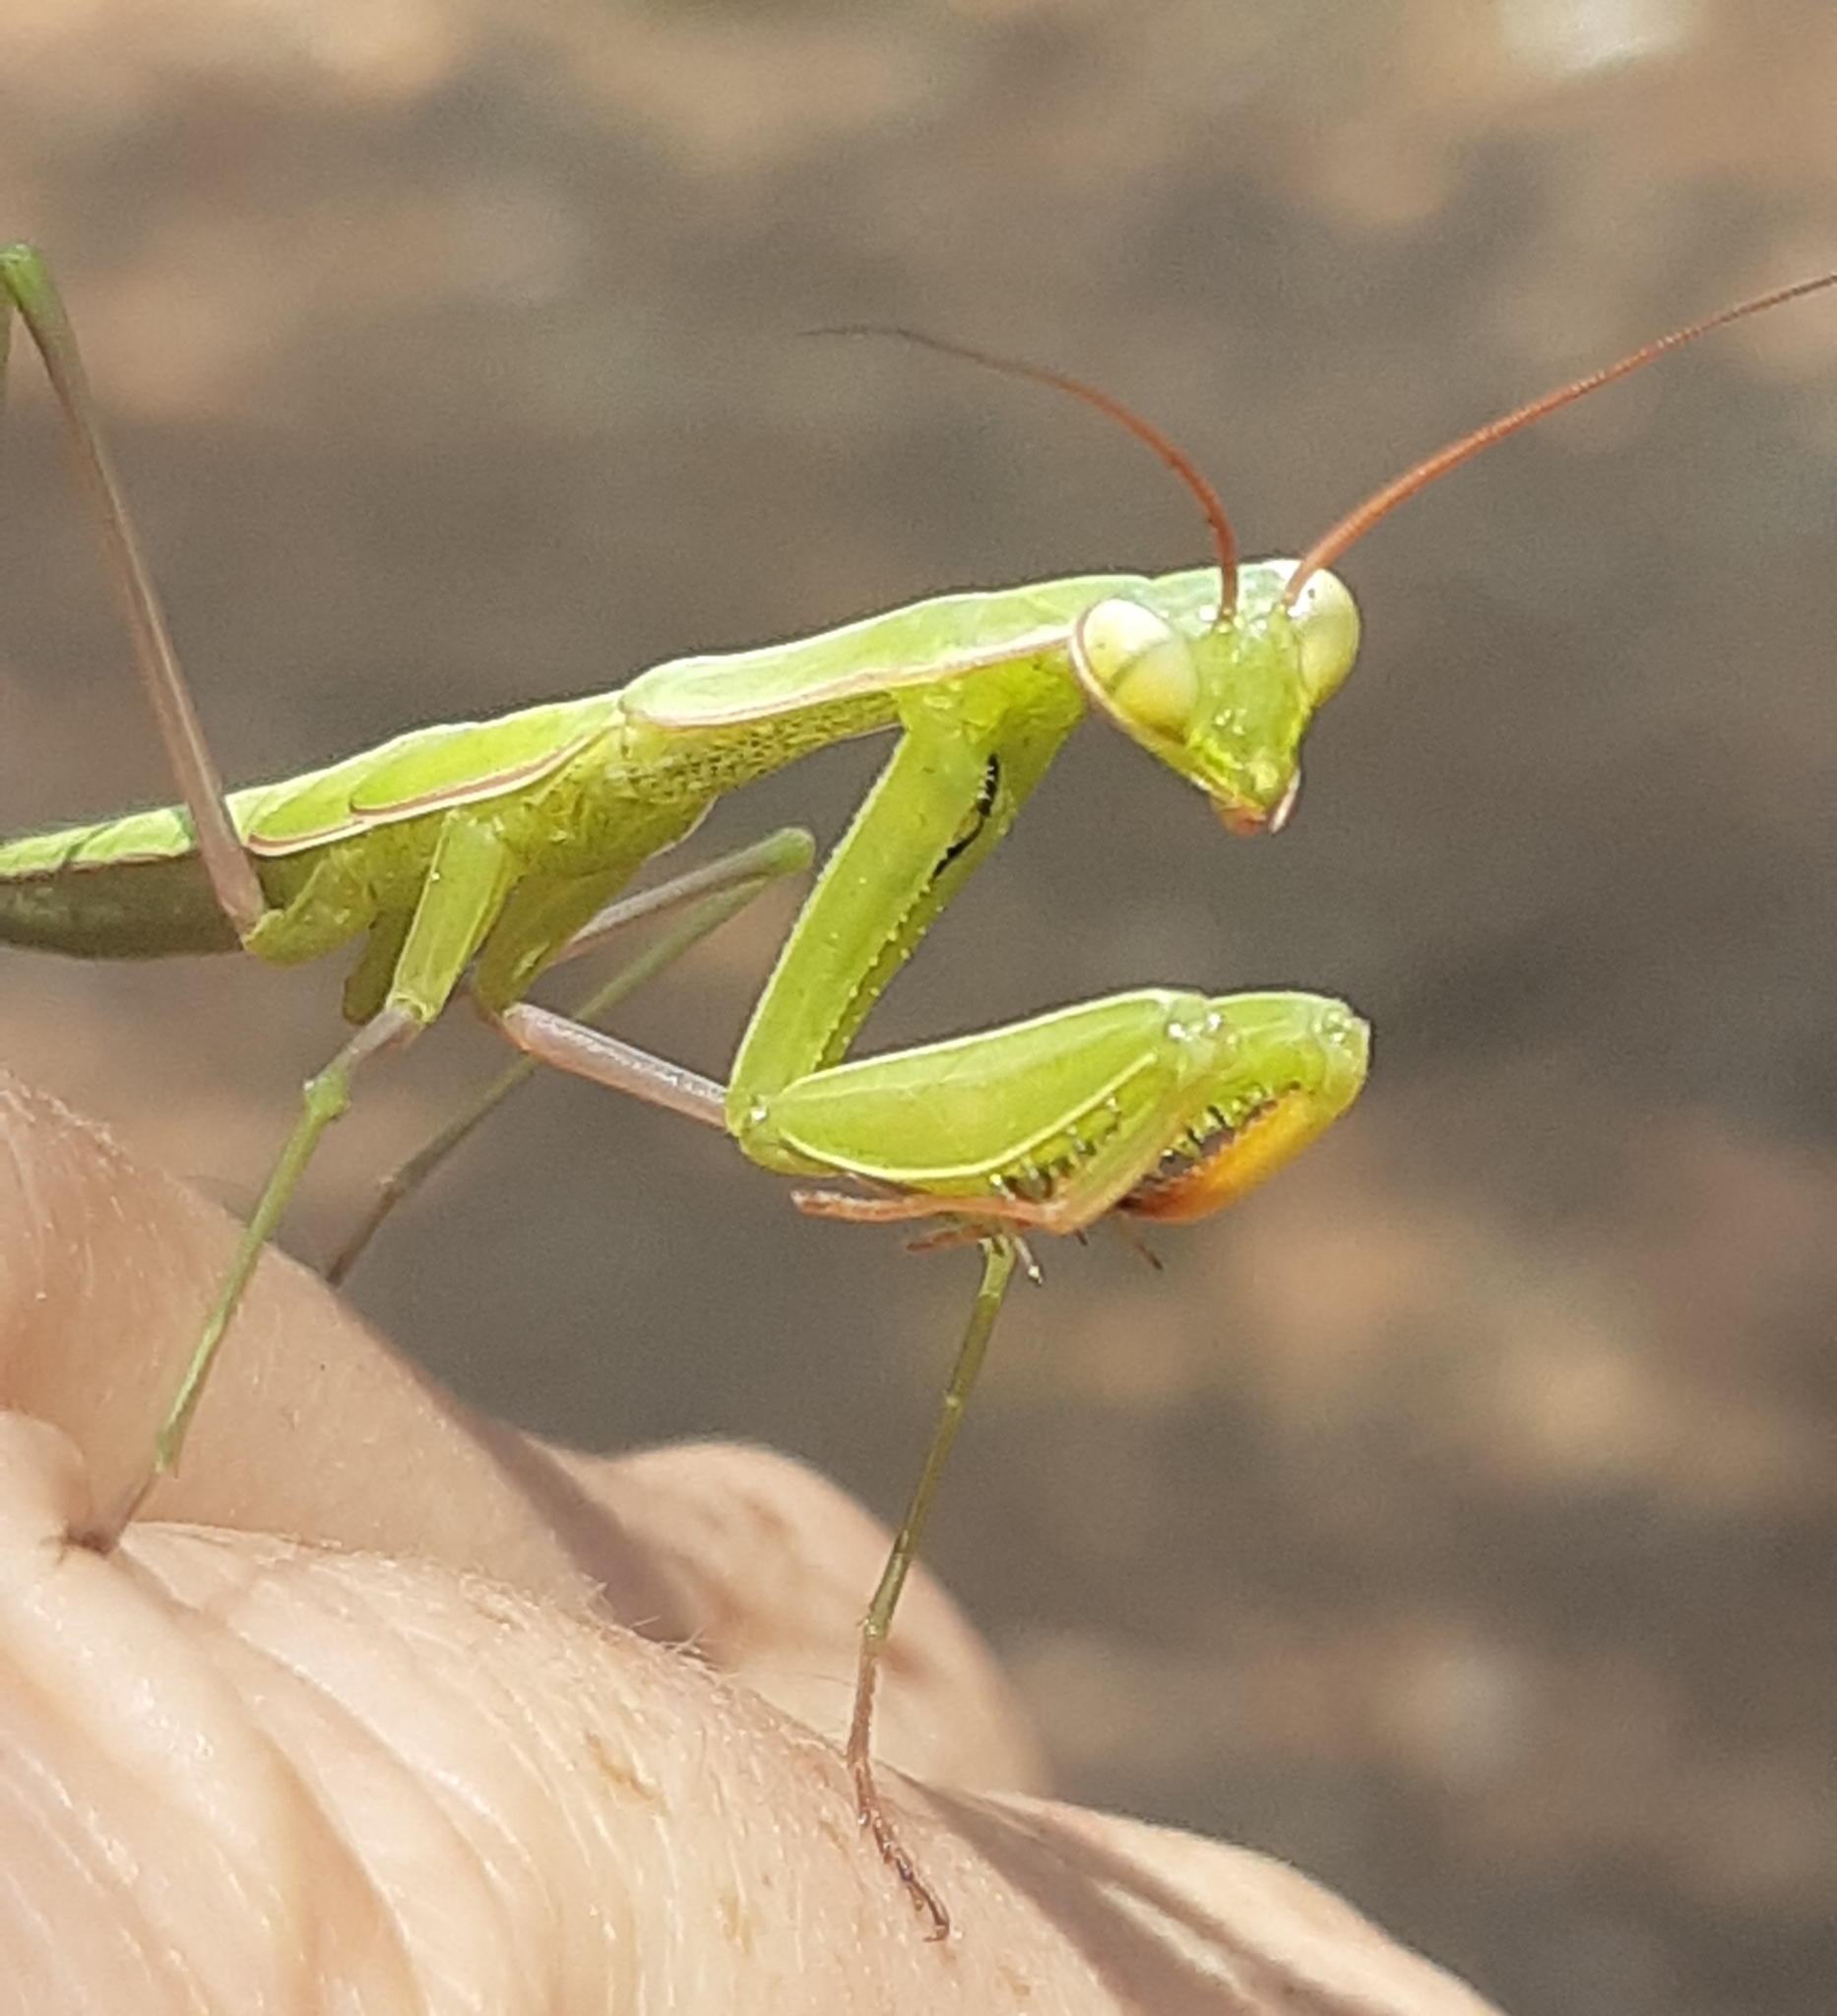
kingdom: Animalia
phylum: Arthropoda
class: Insecta
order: Mantodea
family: Mantidae
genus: Mantis
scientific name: Mantis religiosa
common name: Praying mantis
